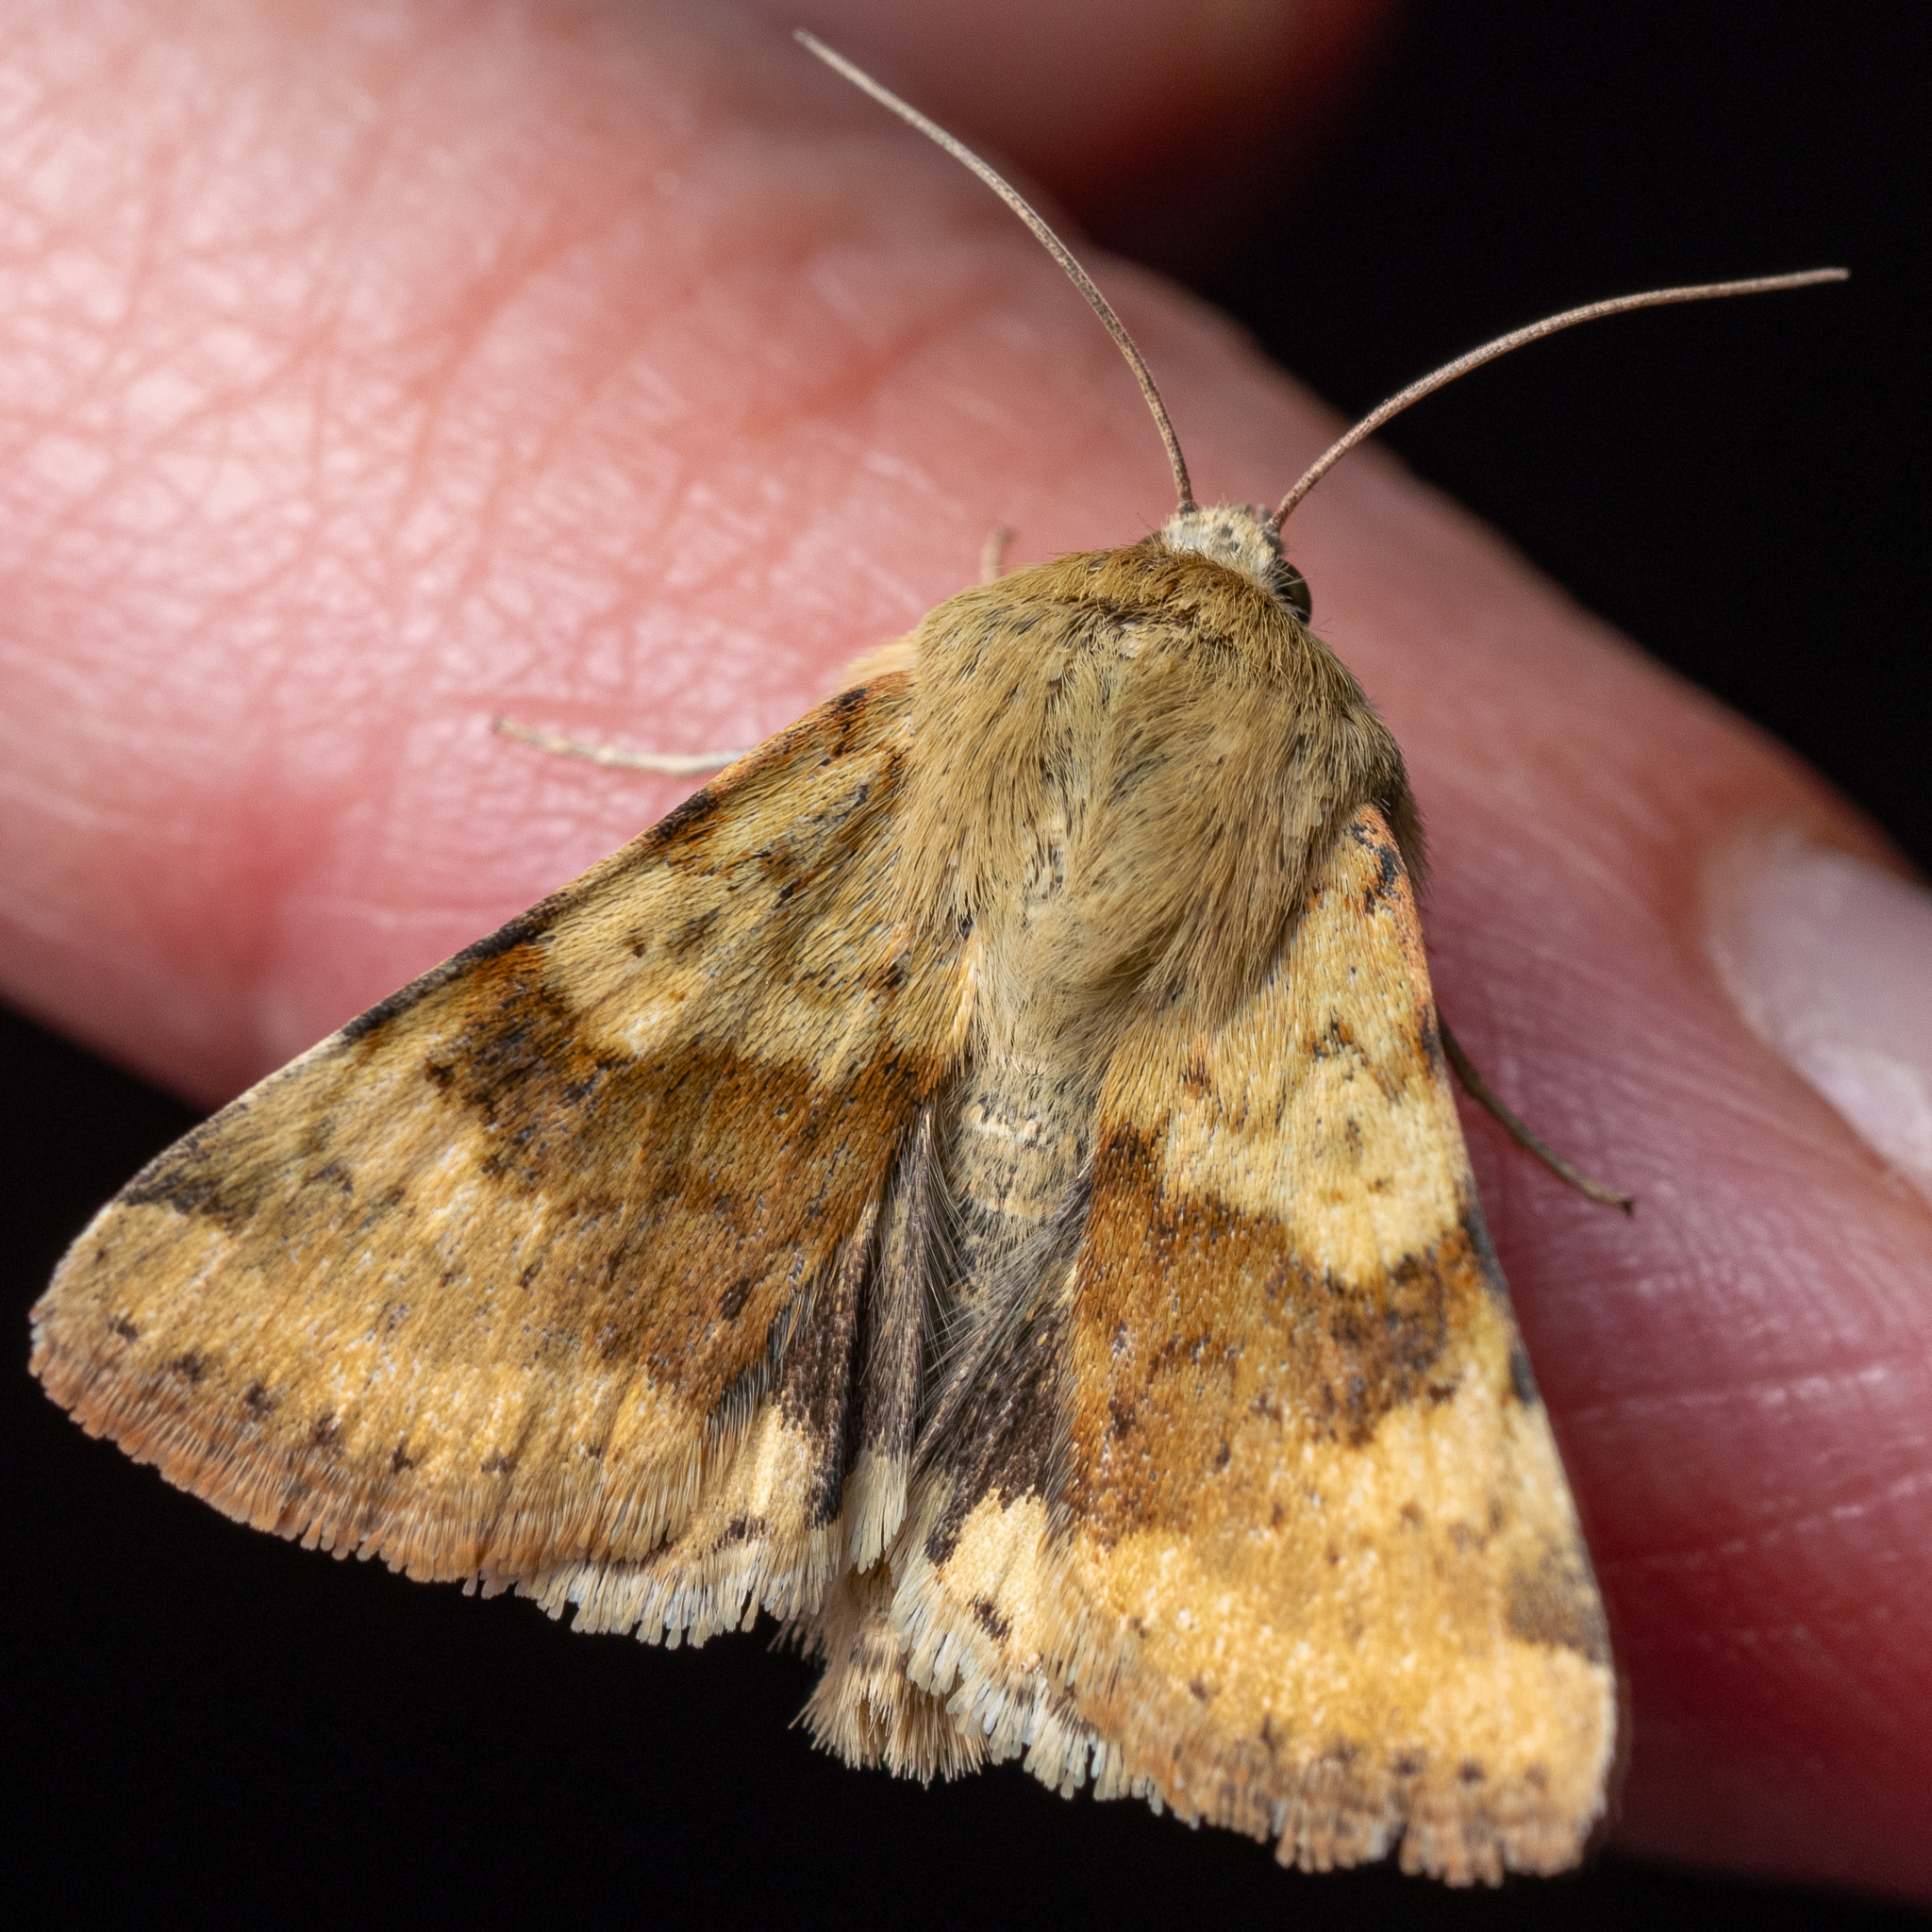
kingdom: Animalia
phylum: Arthropoda
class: Insecta
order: Lepidoptera
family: Noctuidae
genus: Heliothis
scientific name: Heliothis viriplaca
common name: Marbled clover
